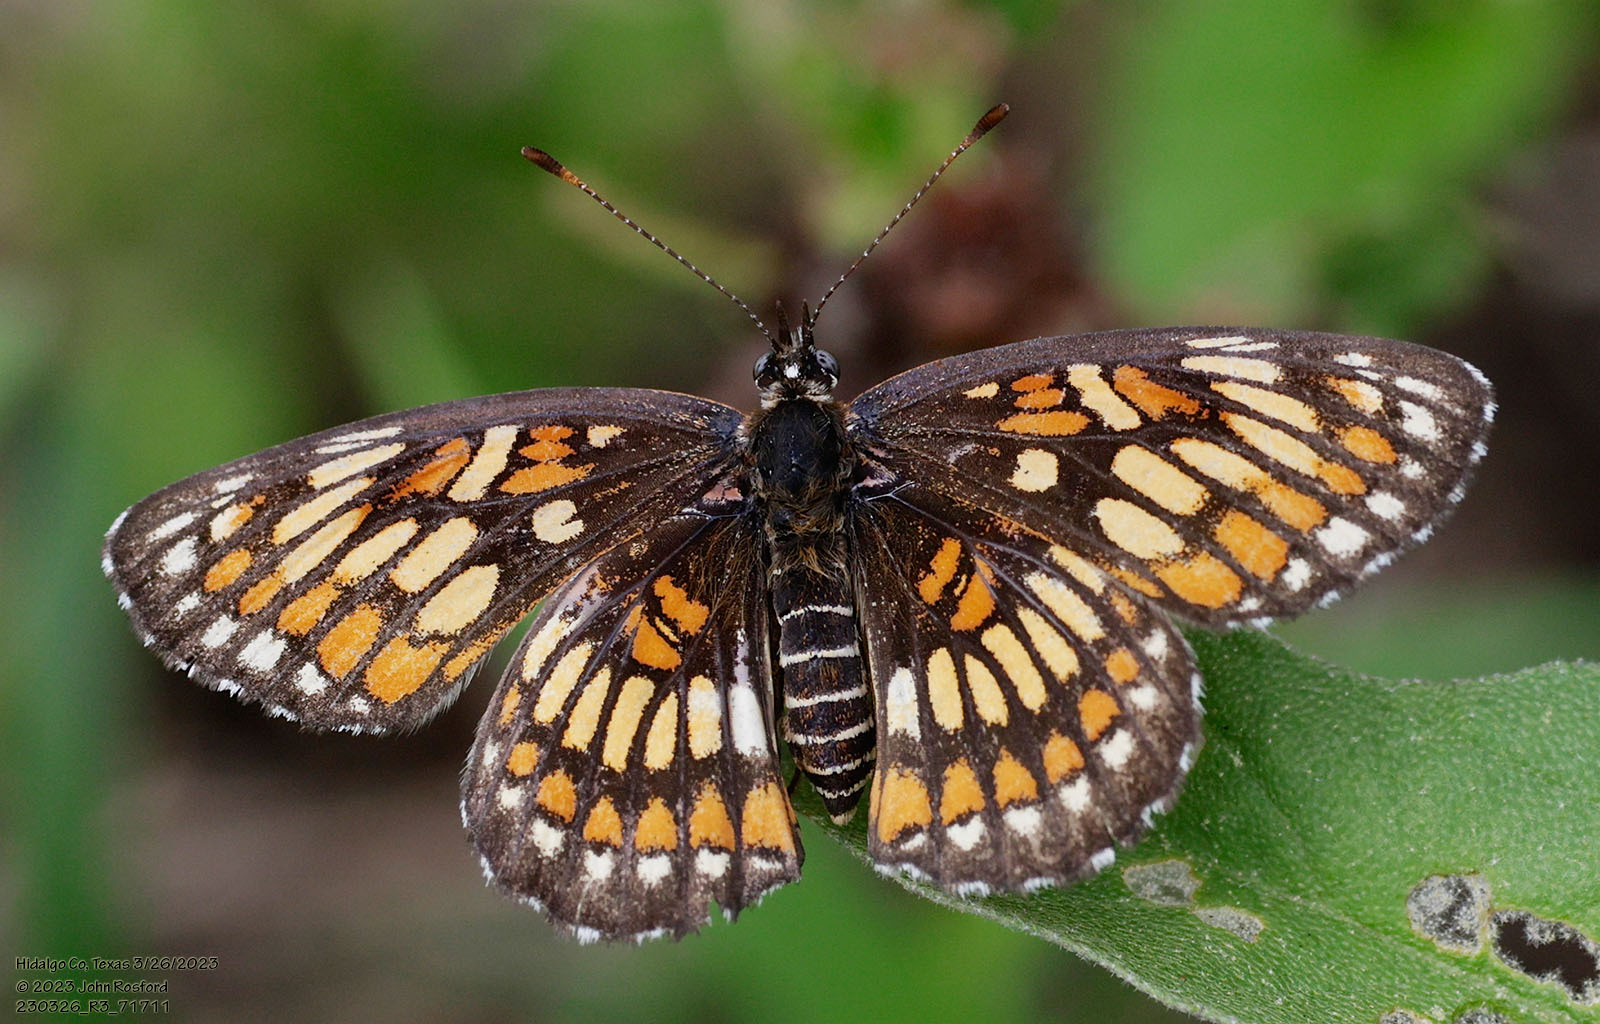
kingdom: Animalia
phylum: Arthropoda
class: Insecta
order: Lepidoptera
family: Nymphalidae
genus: Thessalia
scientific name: Thessalia theona
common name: Nymphalid moth
